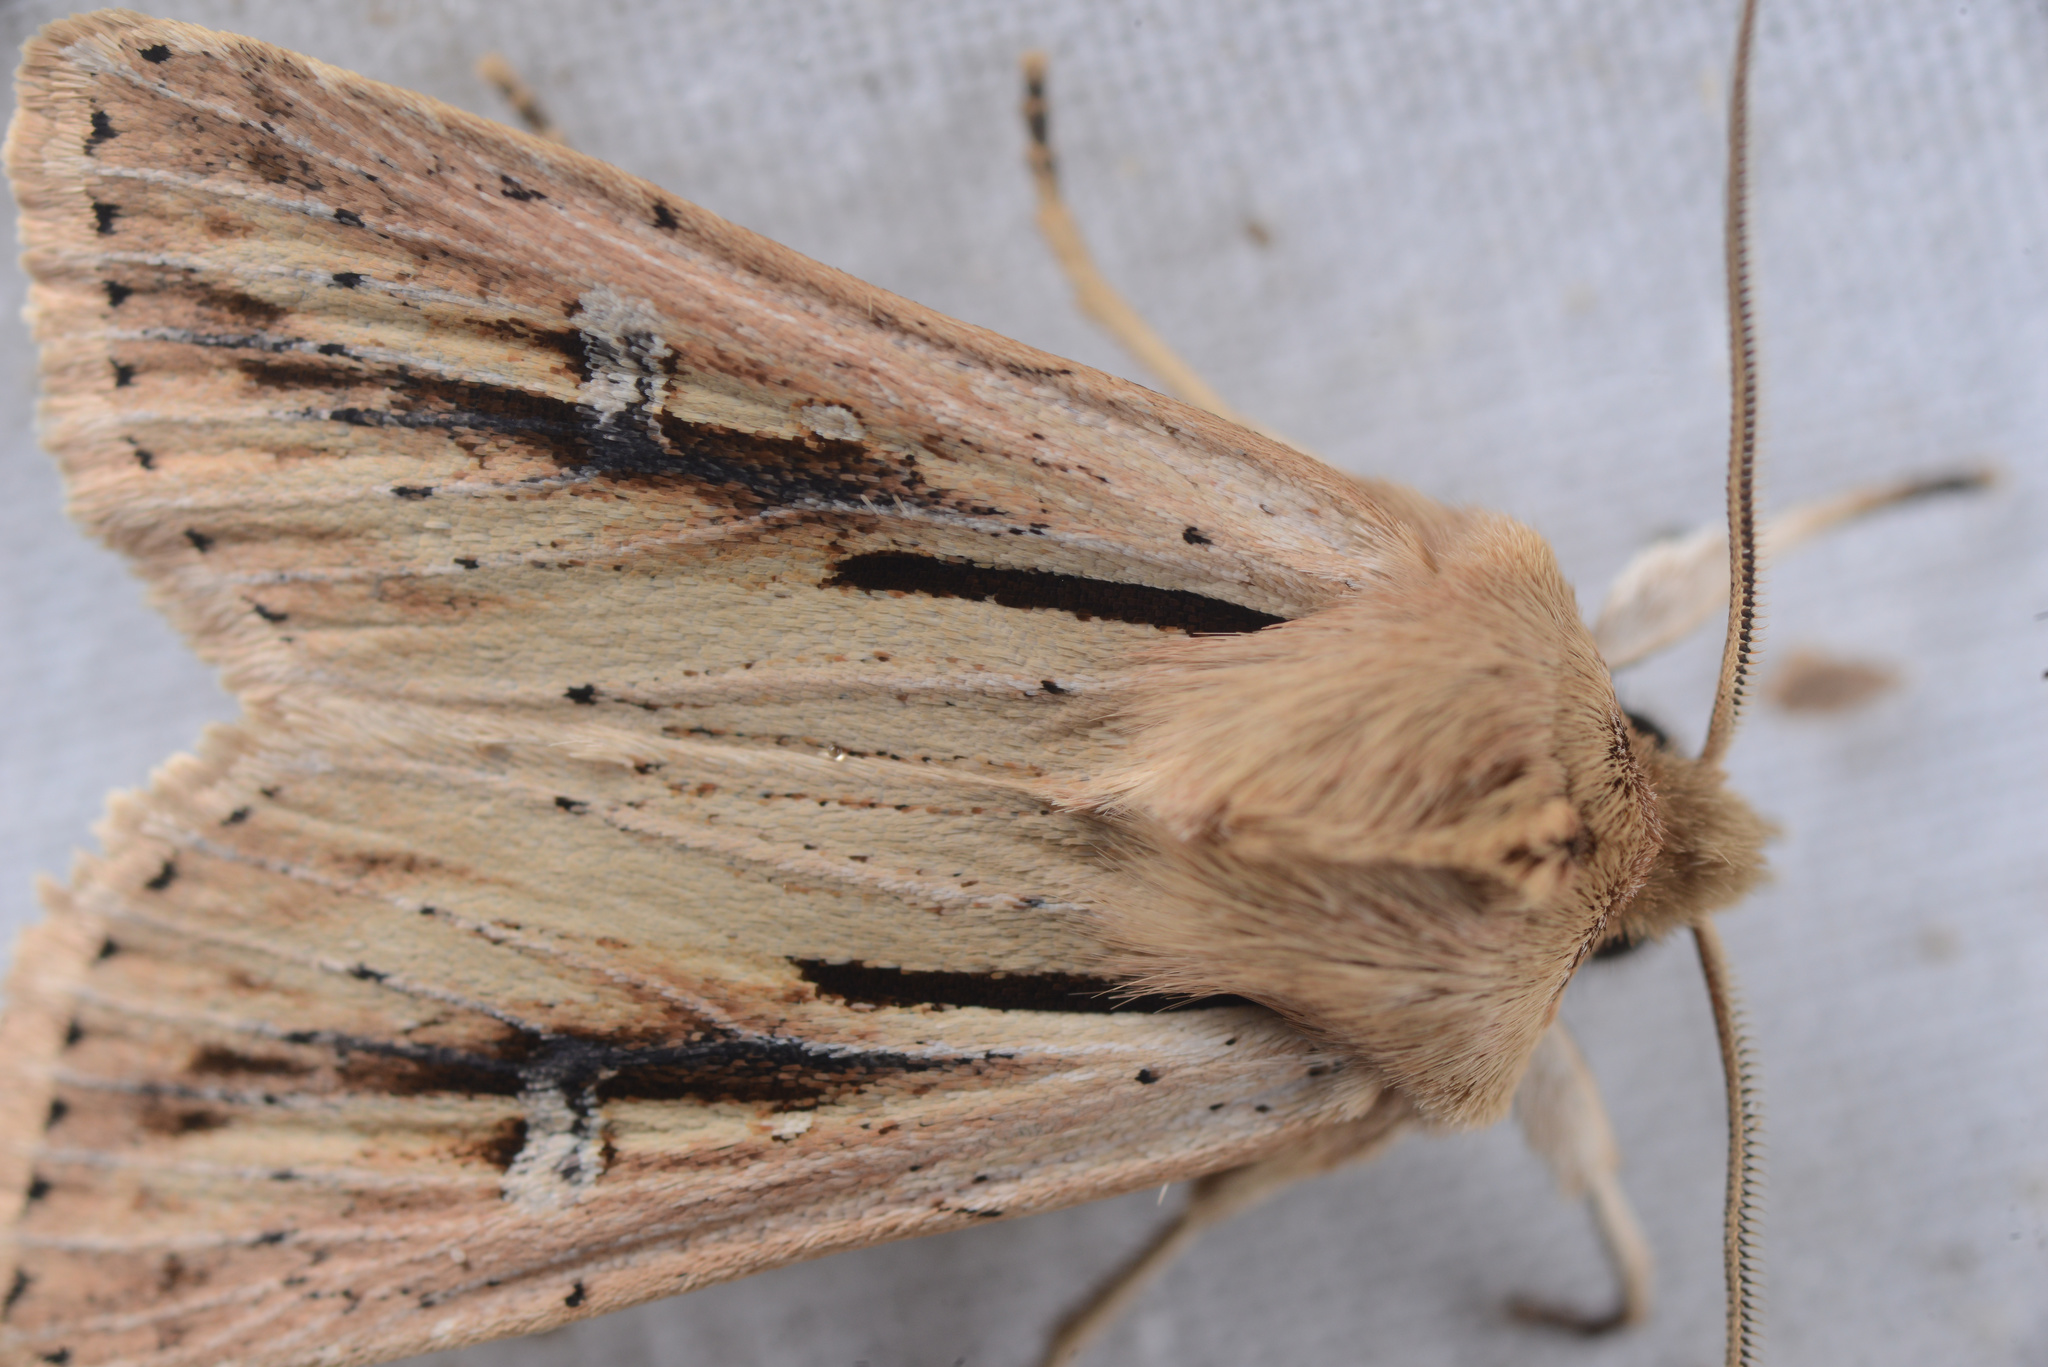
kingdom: Animalia
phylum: Arthropoda
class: Insecta
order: Lepidoptera
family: Noctuidae
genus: Ichneutica
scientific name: Ichneutica propria
